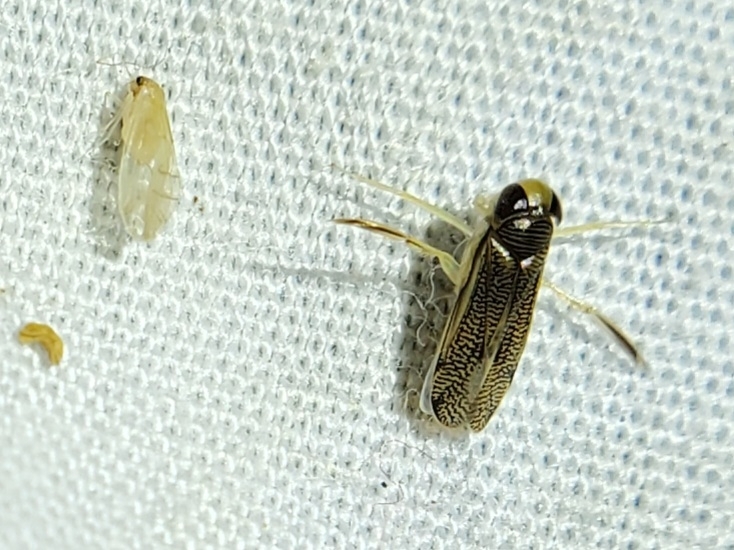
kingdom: Animalia
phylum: Arthropoda
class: Insecta
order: Hemiptera
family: Corixidae
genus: Trichocorixa
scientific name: Trichocorixa
